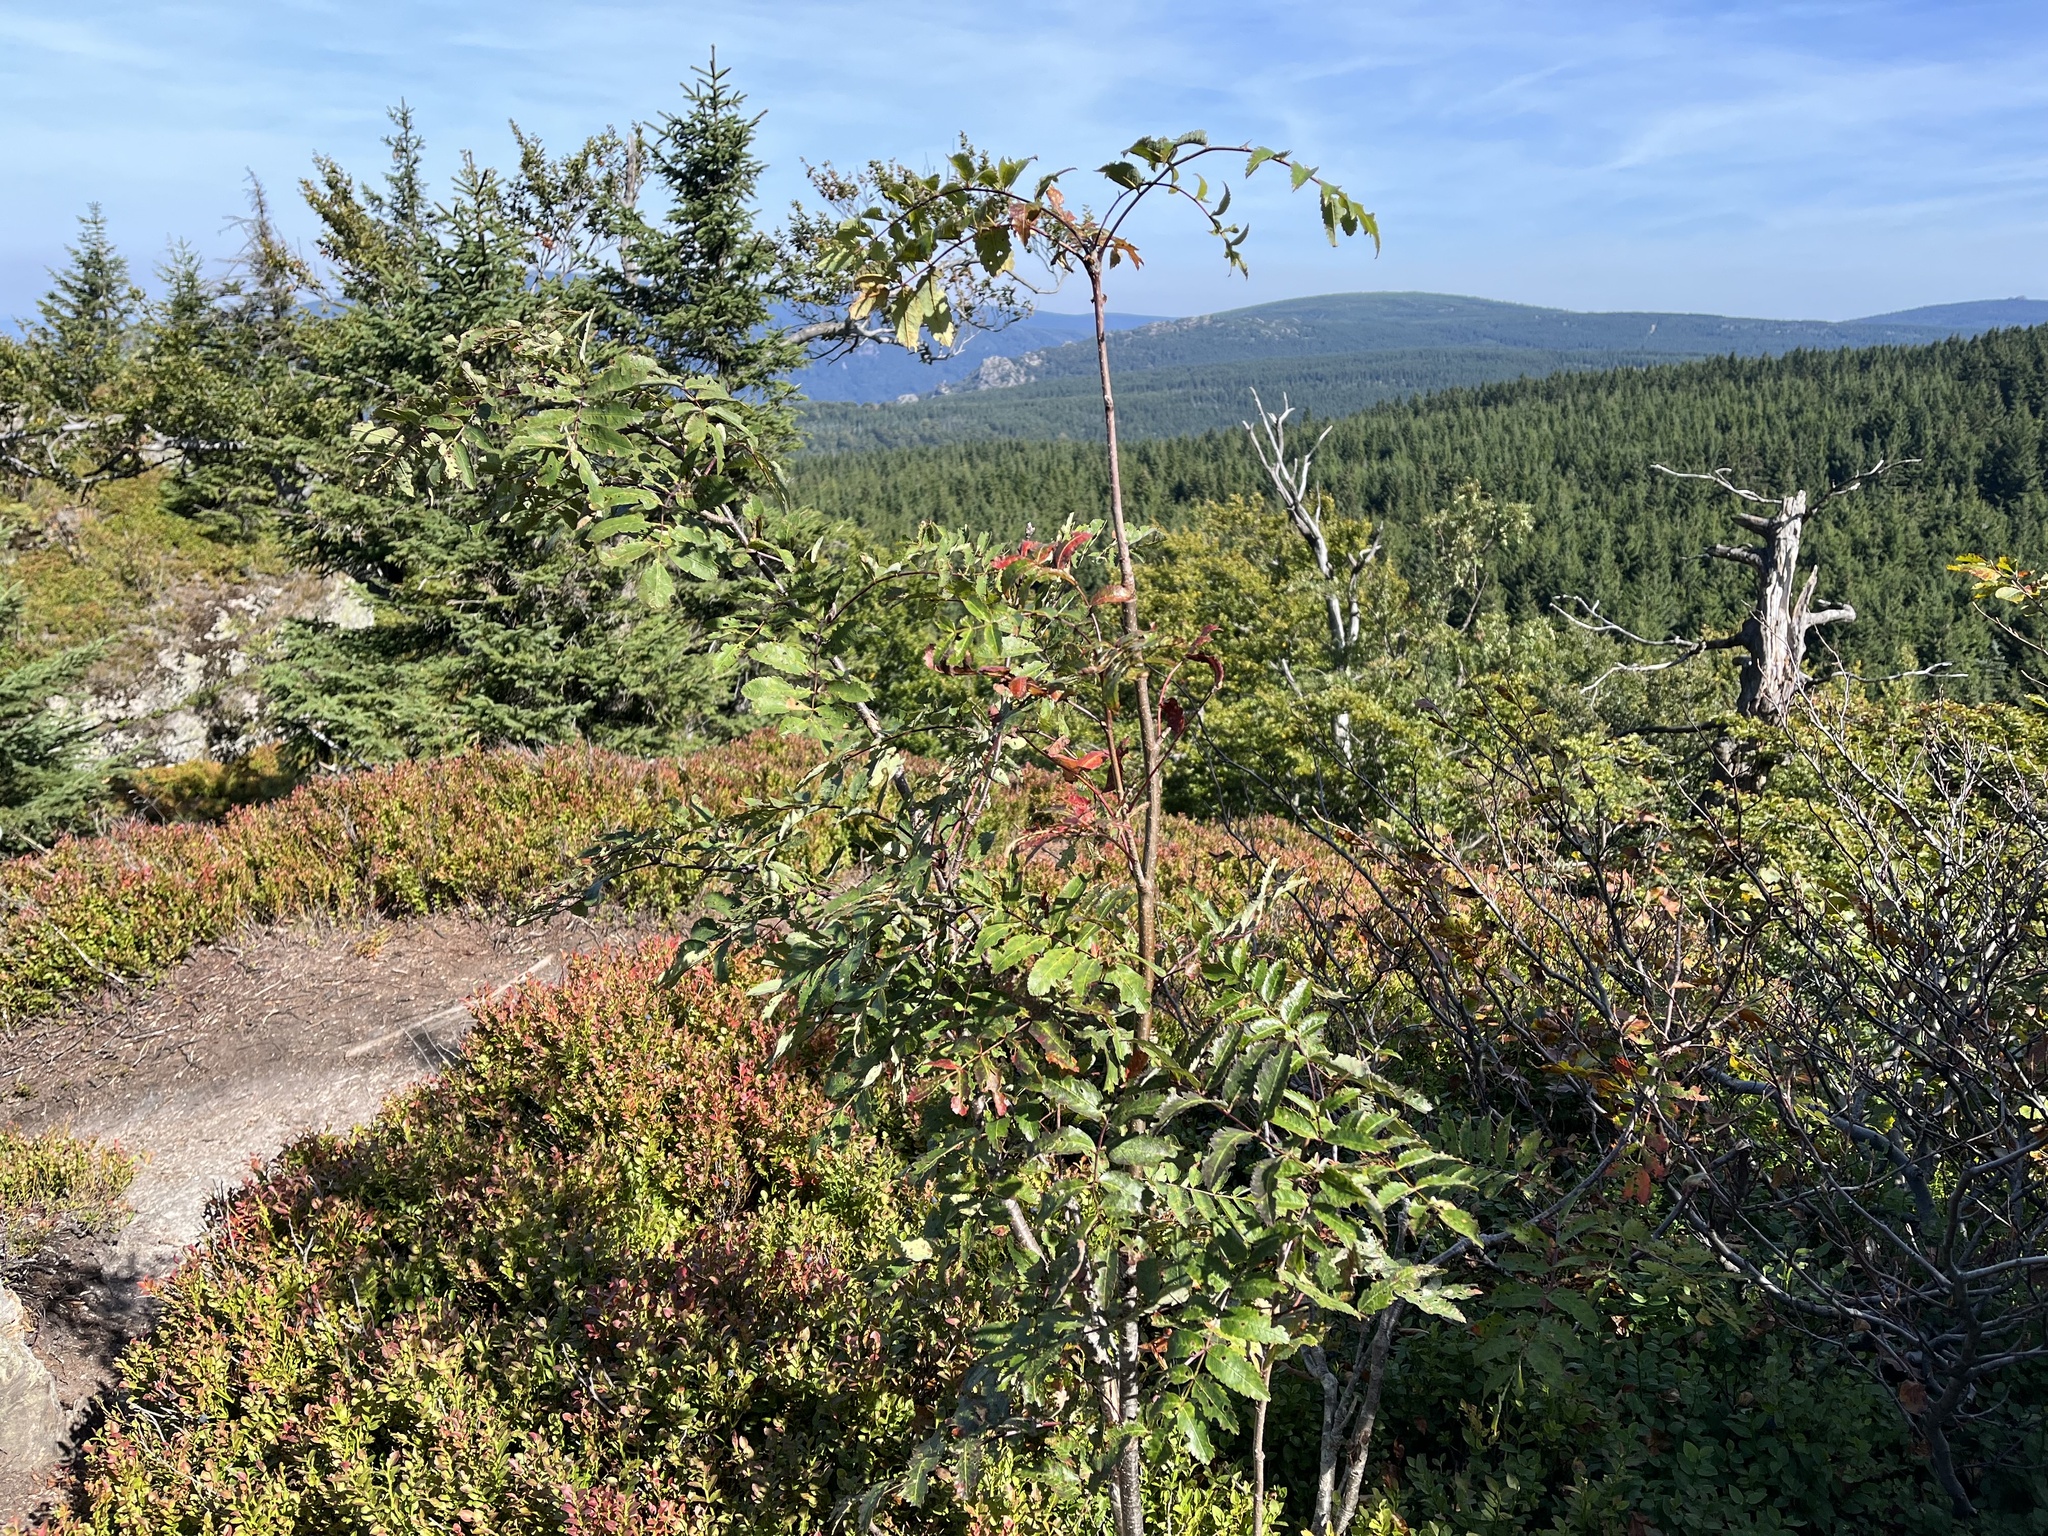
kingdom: Plantae
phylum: Tracheophyta
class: Magnoliopsida
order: Rosales
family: Rosaceae
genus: Sorbus
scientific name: Sorbus aucuparia
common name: Rowan
